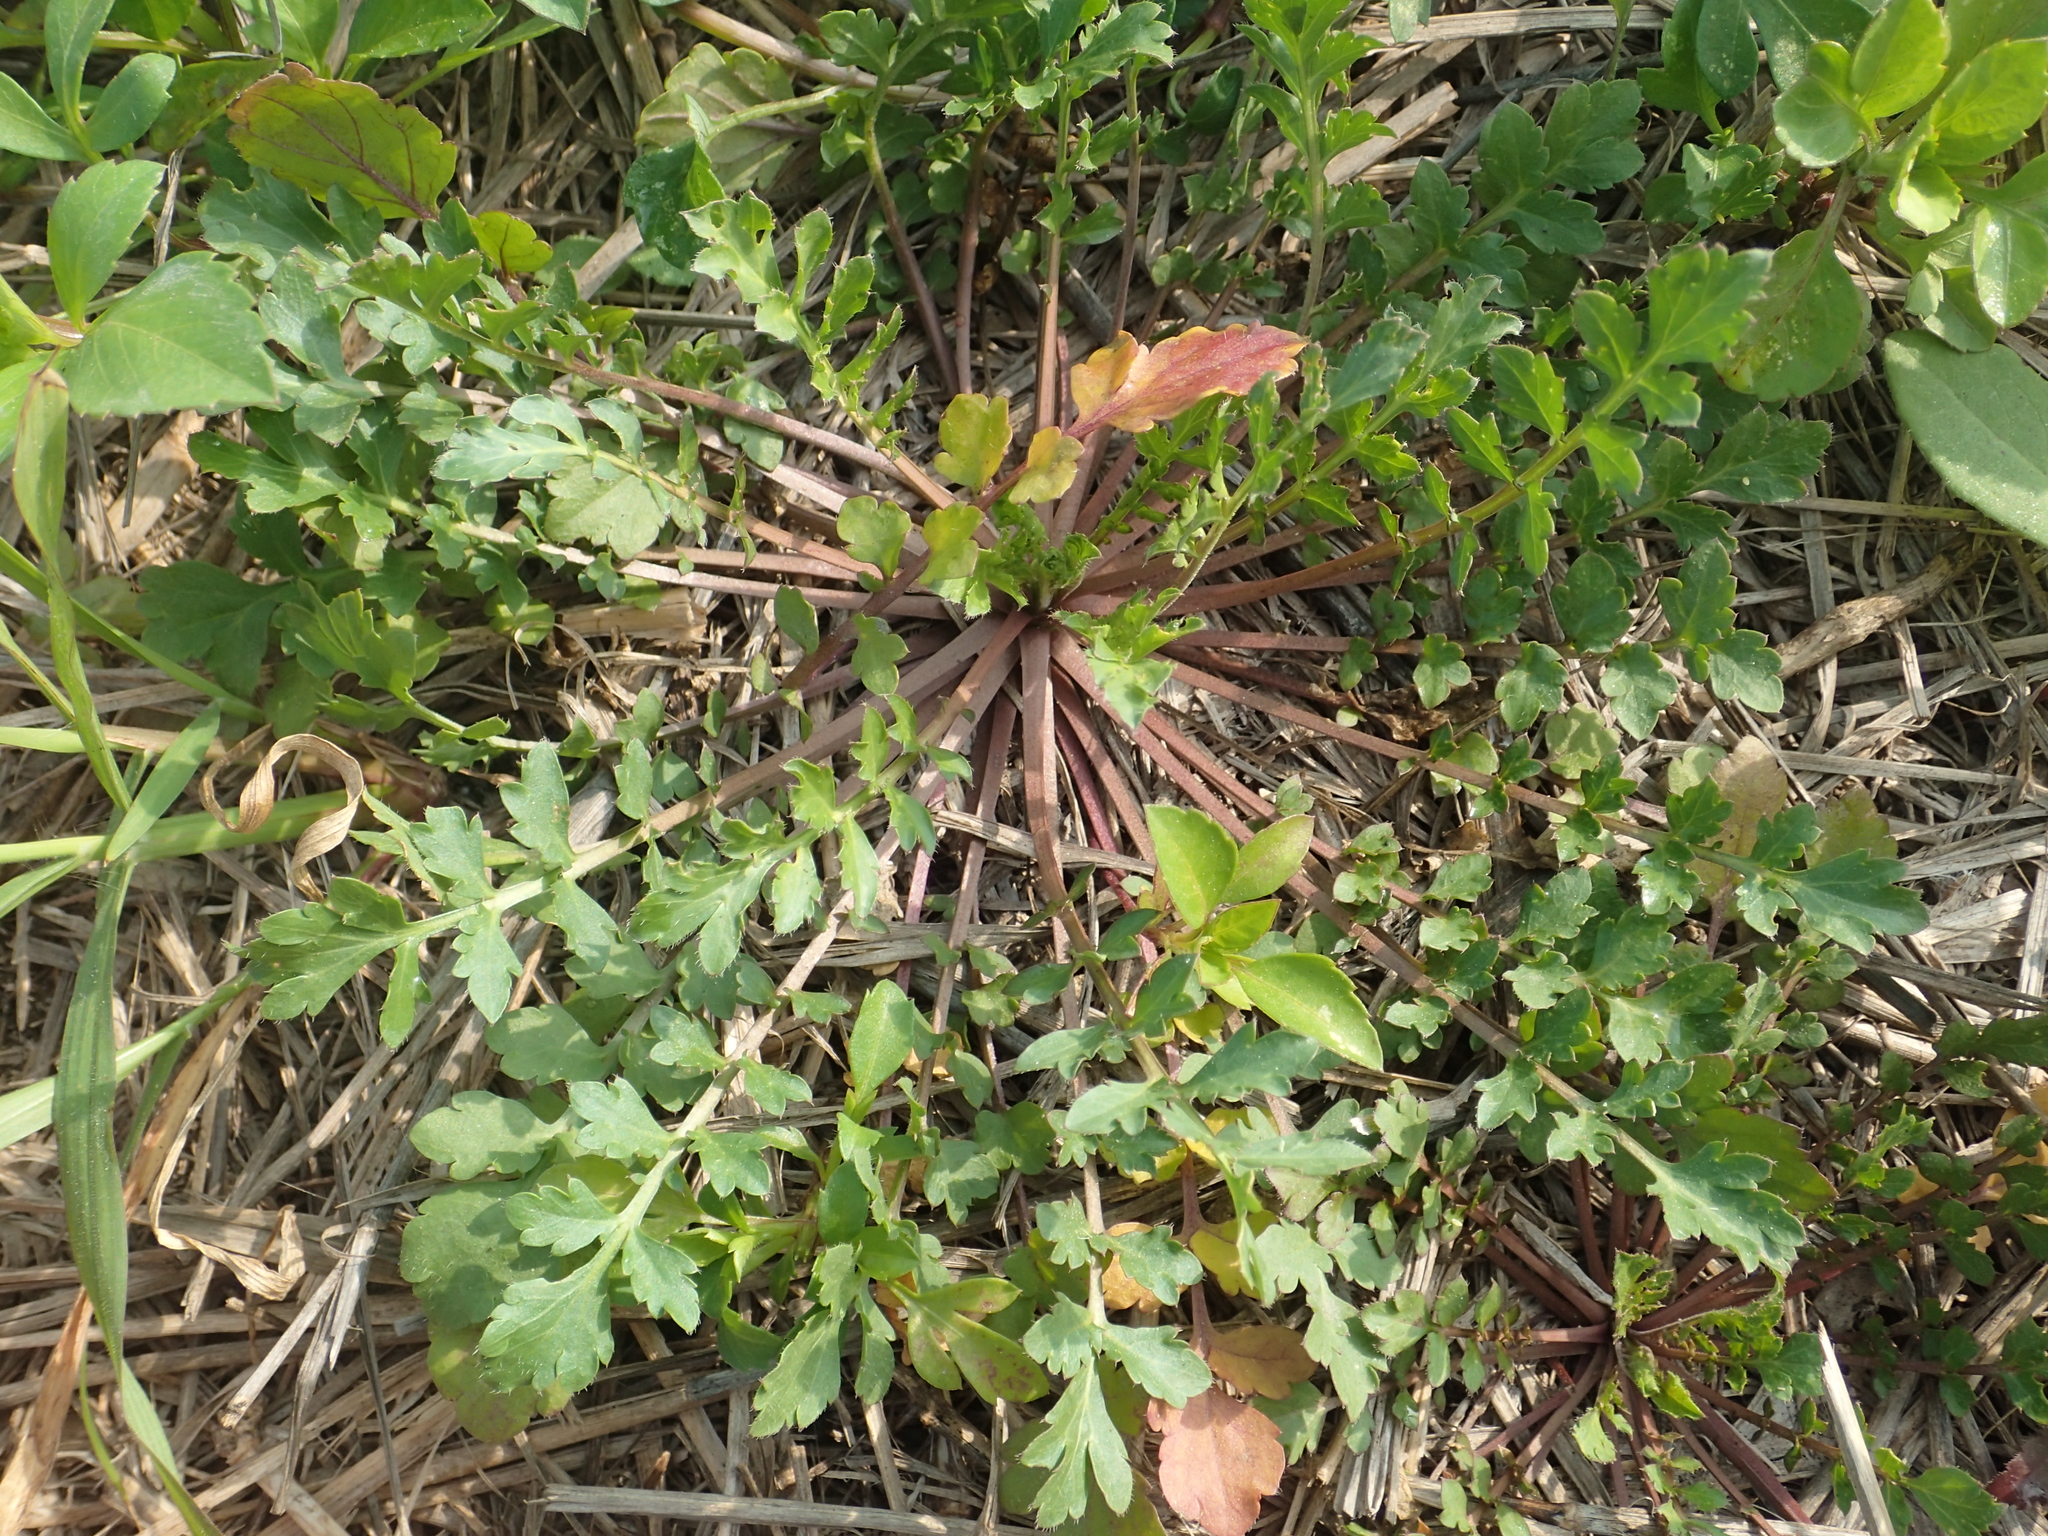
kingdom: Plantae
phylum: Tracheophyta
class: Magnoliopsida
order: Brassicales
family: Brassicaceae
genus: Capsella
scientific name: Capsella bursa-pastoris
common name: Shepherd's purse
